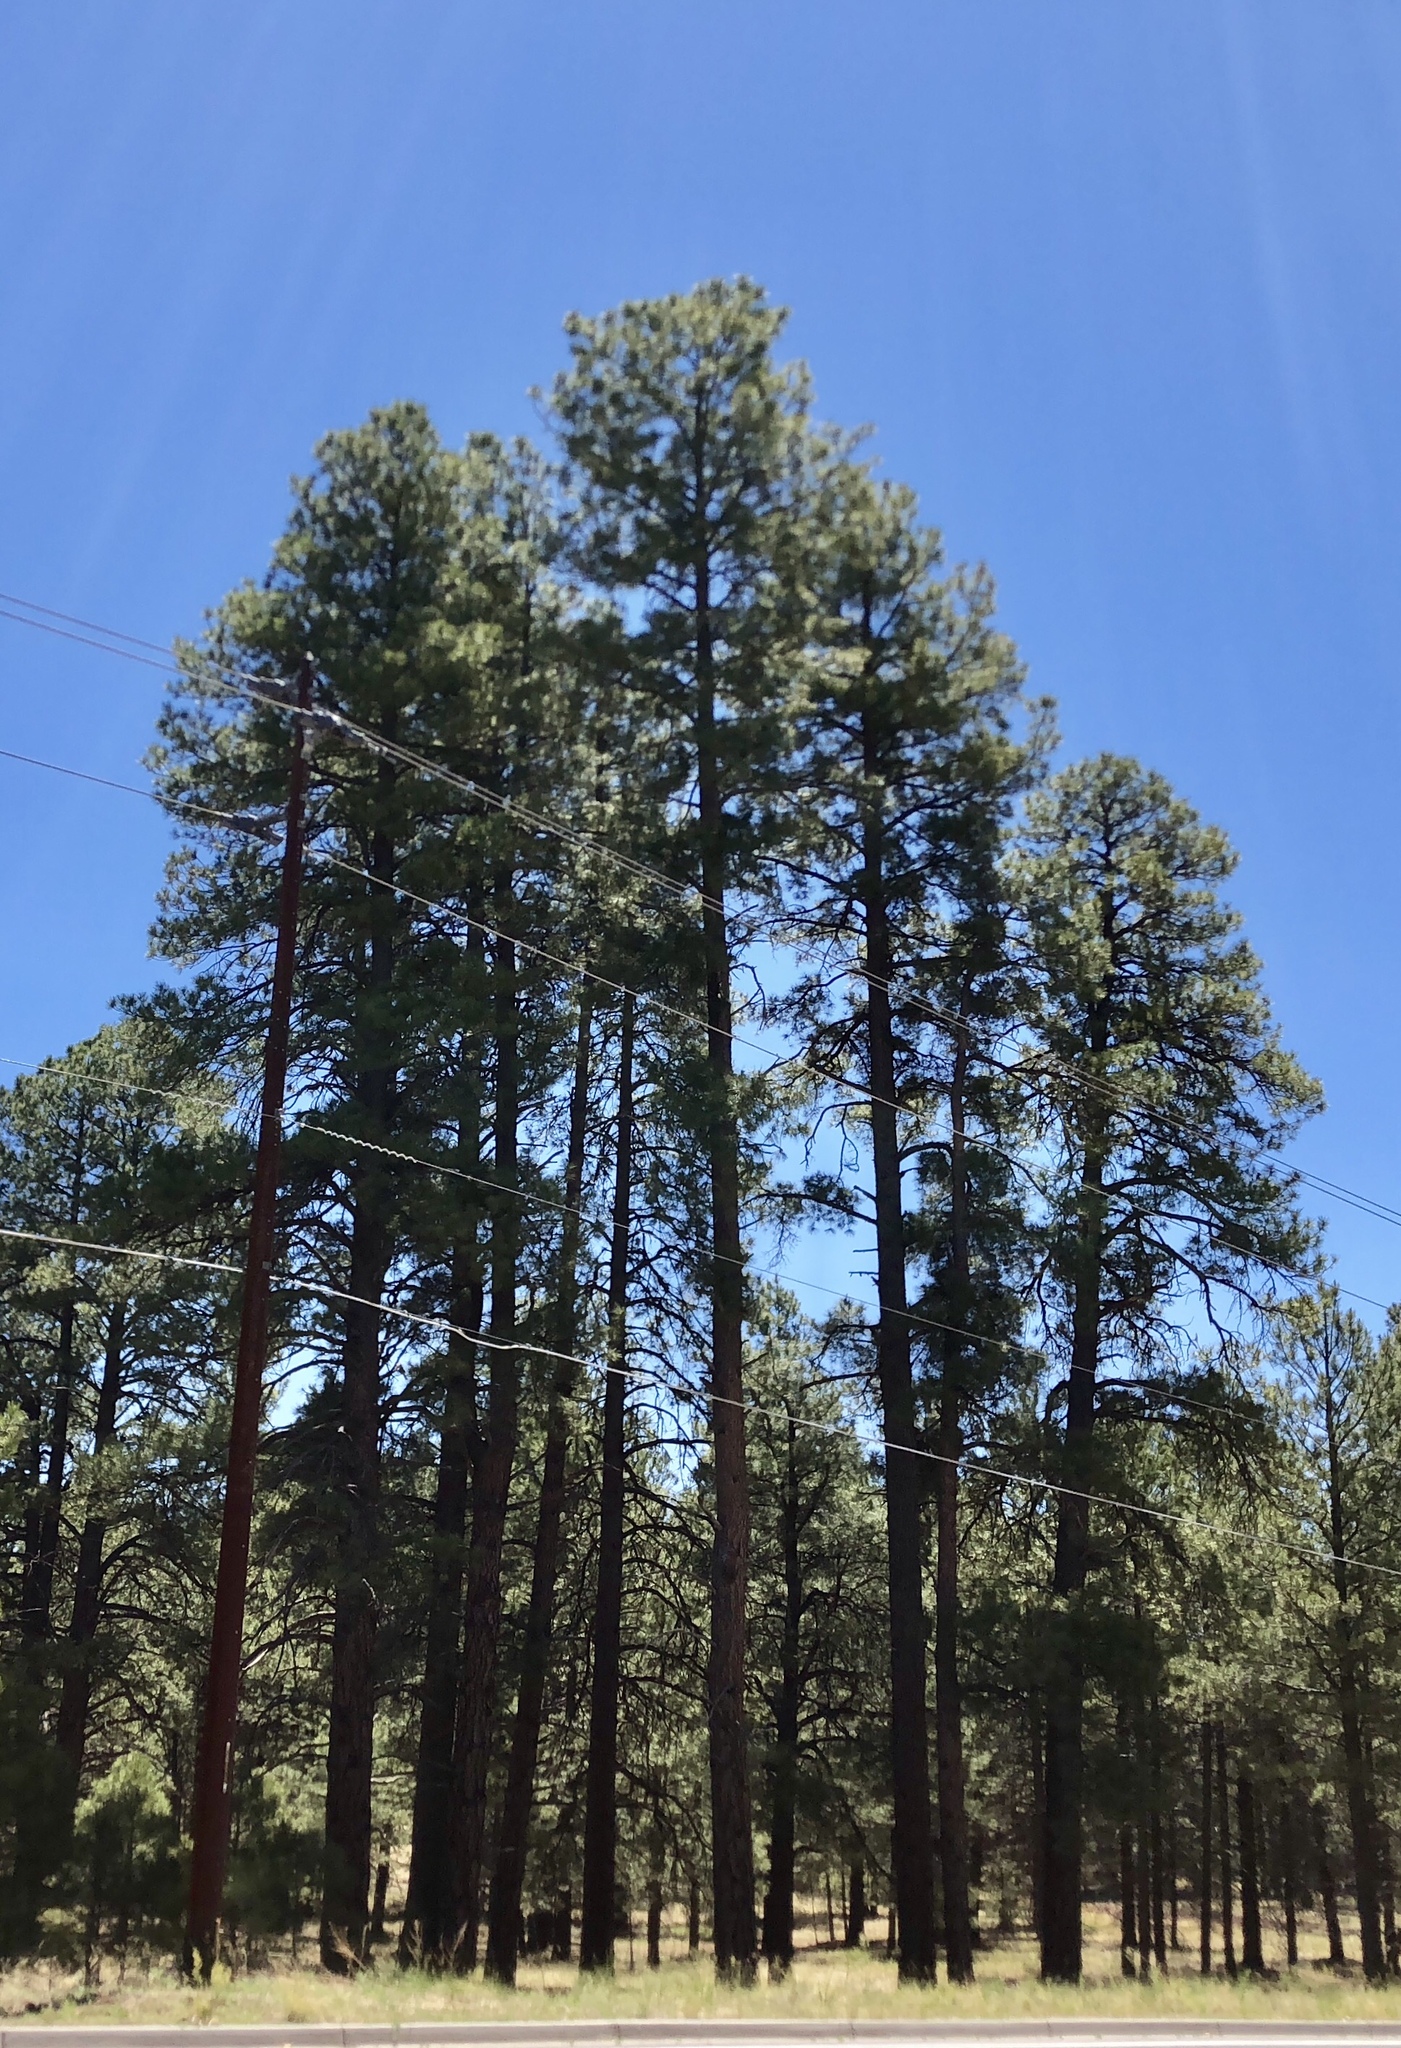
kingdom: Plantae
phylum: Tracheophyta
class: Pinopsida
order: Pinales
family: Pinaceae
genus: Pinus
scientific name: Pinus ponderosa
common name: Western yellow-pine
